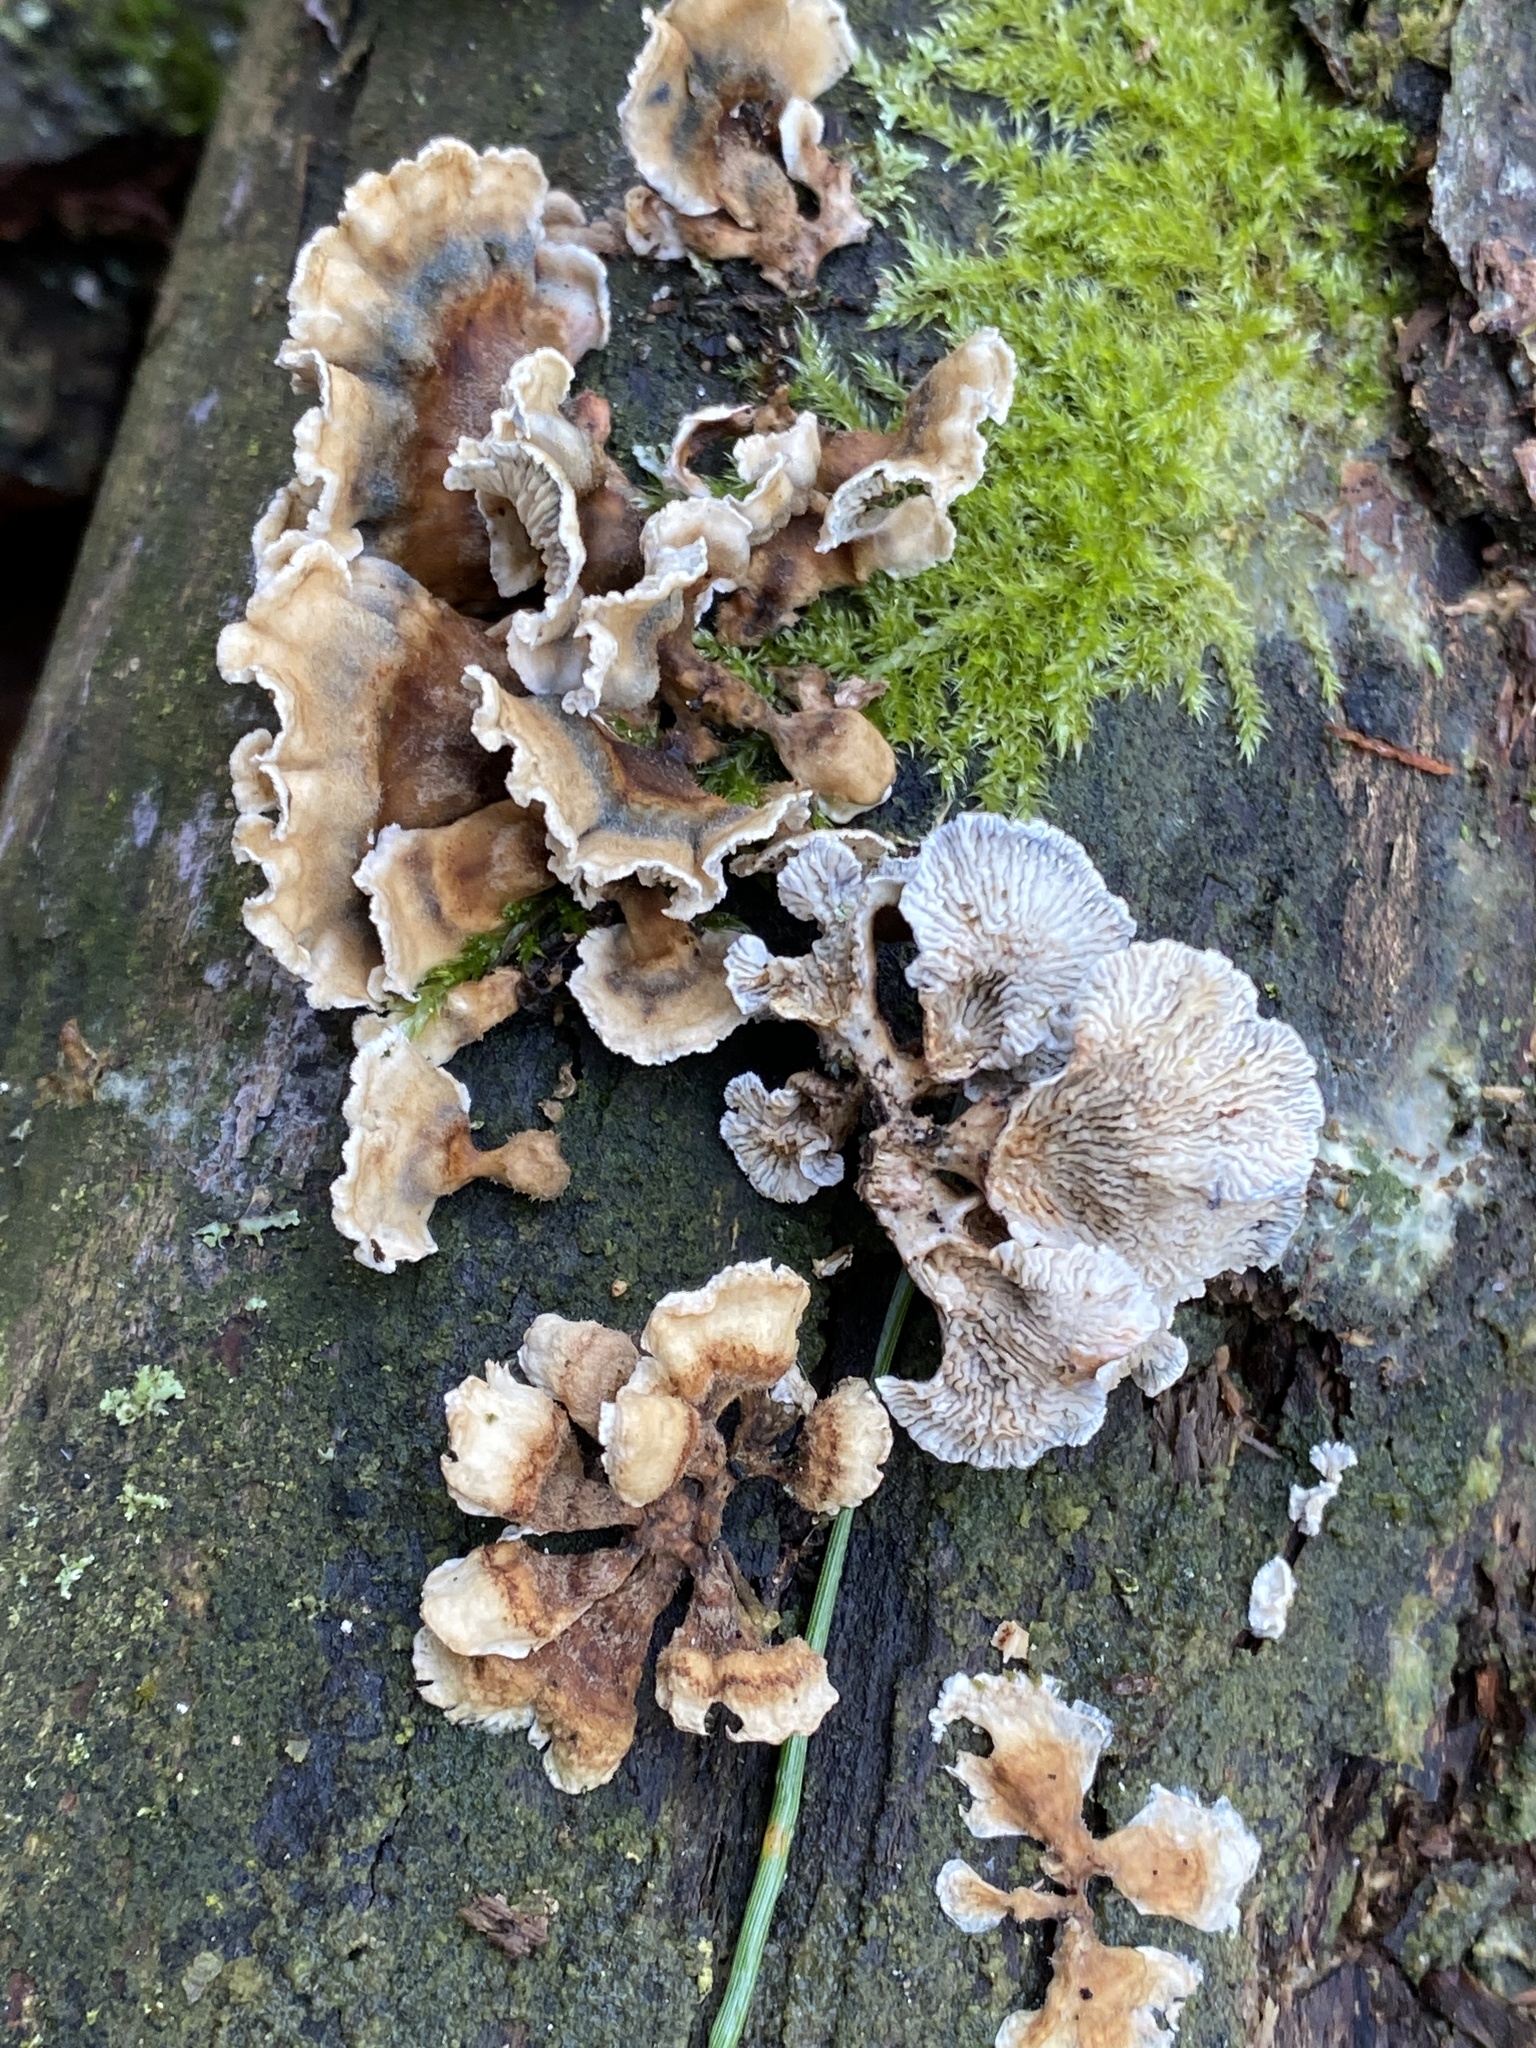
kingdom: Fungi
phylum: Basidiomycota
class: Agaricomycetes
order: Amylocorticiales
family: Amylocorticiaceae
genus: Plicaturopsis
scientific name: Plicaturopsis crispa
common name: Crimped gill
